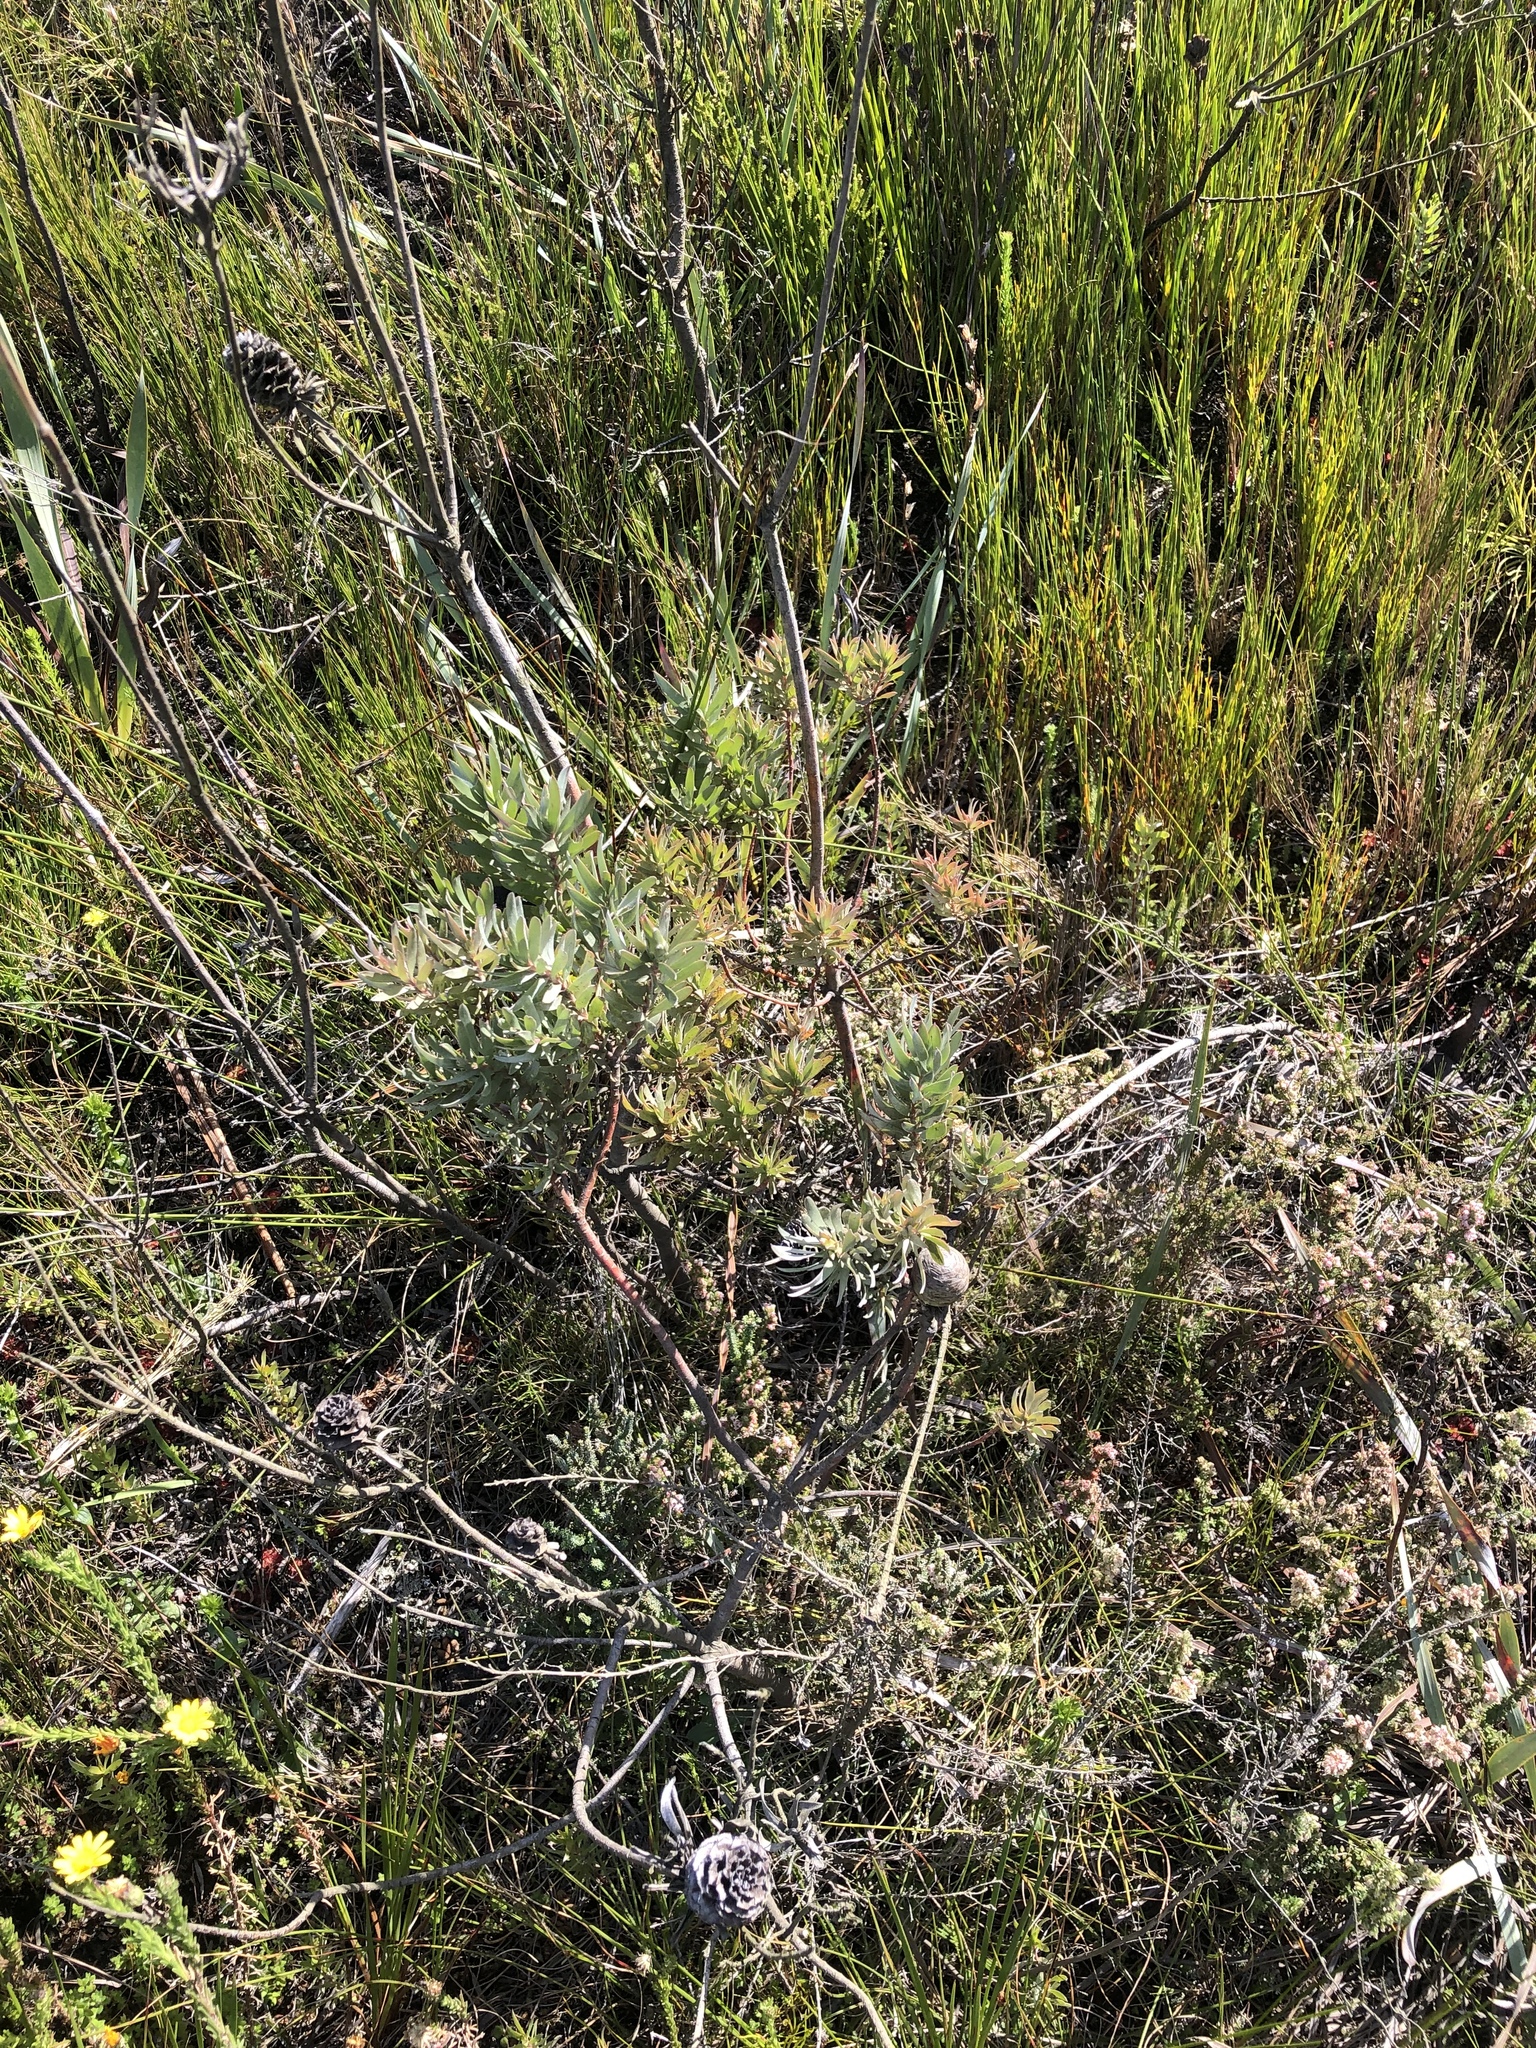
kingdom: Plantae
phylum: Tracheophyta
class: Magnoliopsida
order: Proteales
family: Proteaceae
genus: Leucadendron
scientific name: Leucadendron uliginosum
